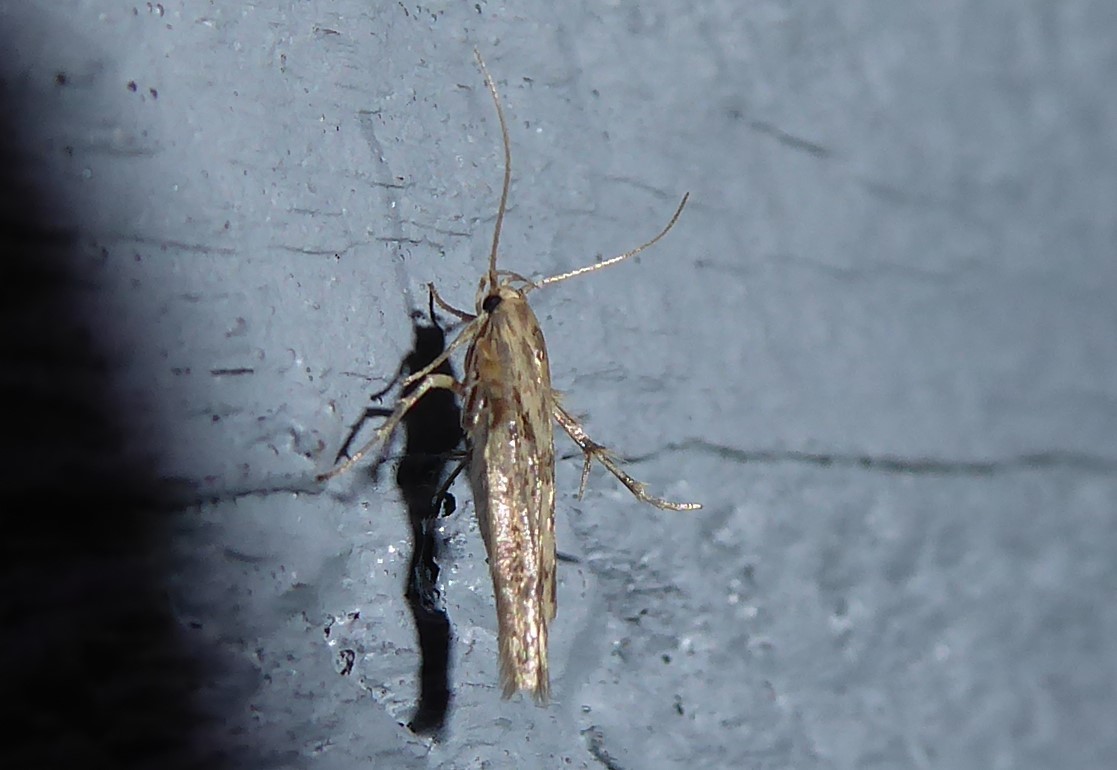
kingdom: Animalia
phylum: Arthropoda
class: Insecta
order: Lepidoptera
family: Stathmopodidae
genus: Stathmopoda
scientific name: Stathmopoda plumbiflua
